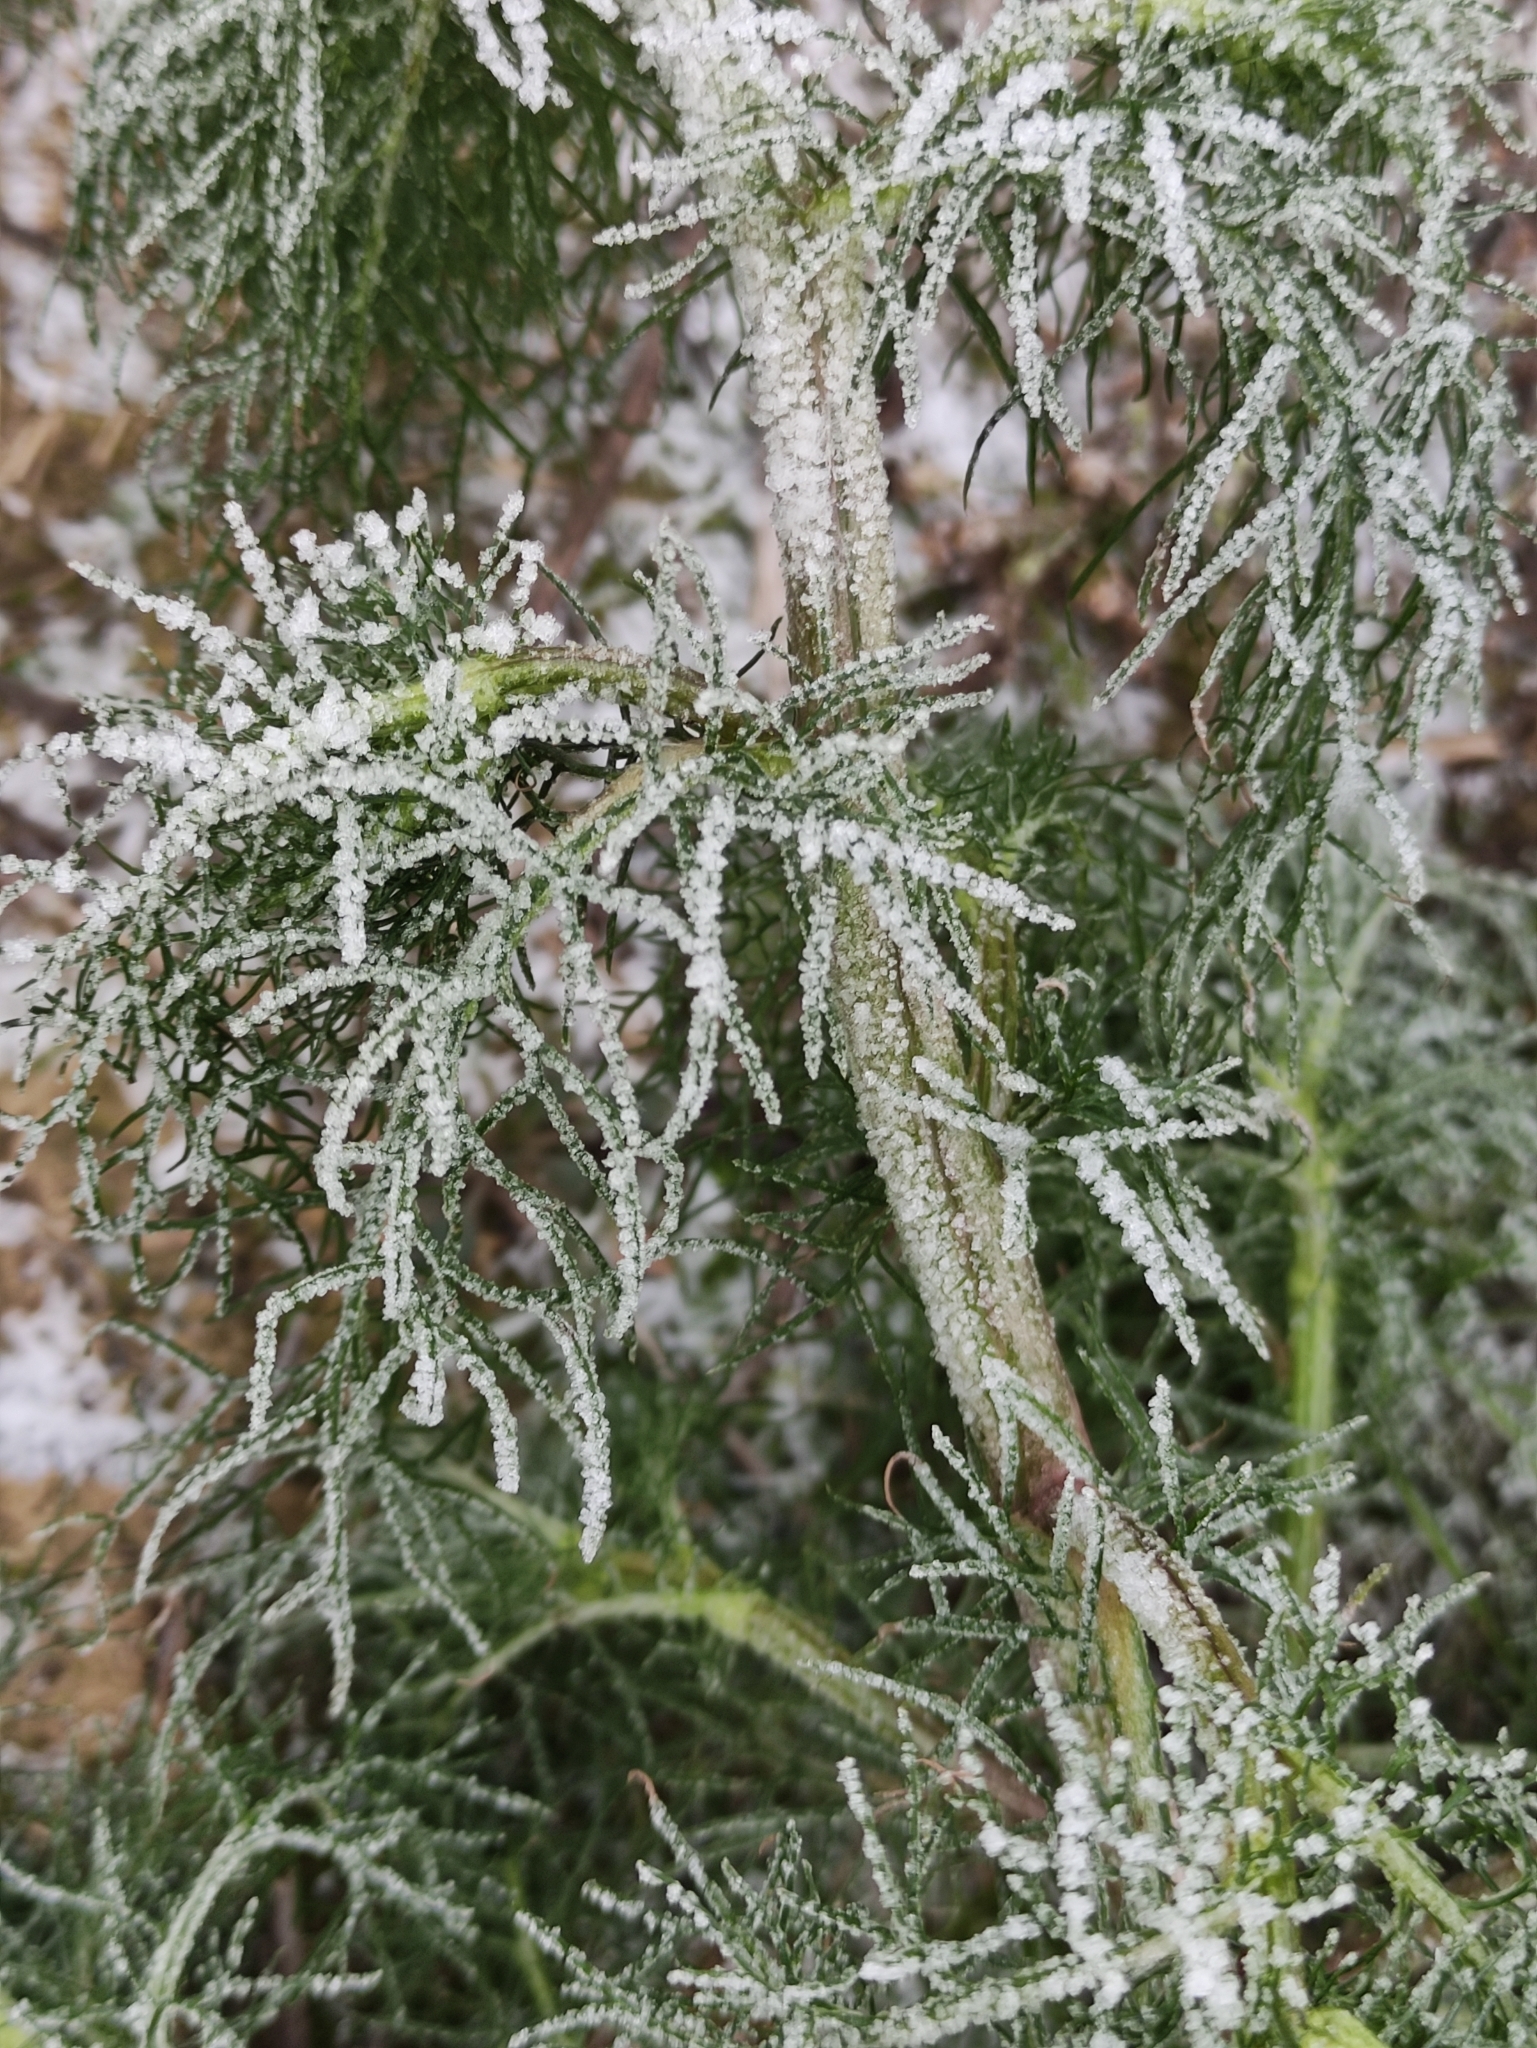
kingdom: Plantae
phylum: Tracheophyta
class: Magnoliopsida
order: Asterales
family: Asteraceae
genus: Tripleurospermum
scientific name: Tripleurospermum inodorum
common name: Scentless mayweed
